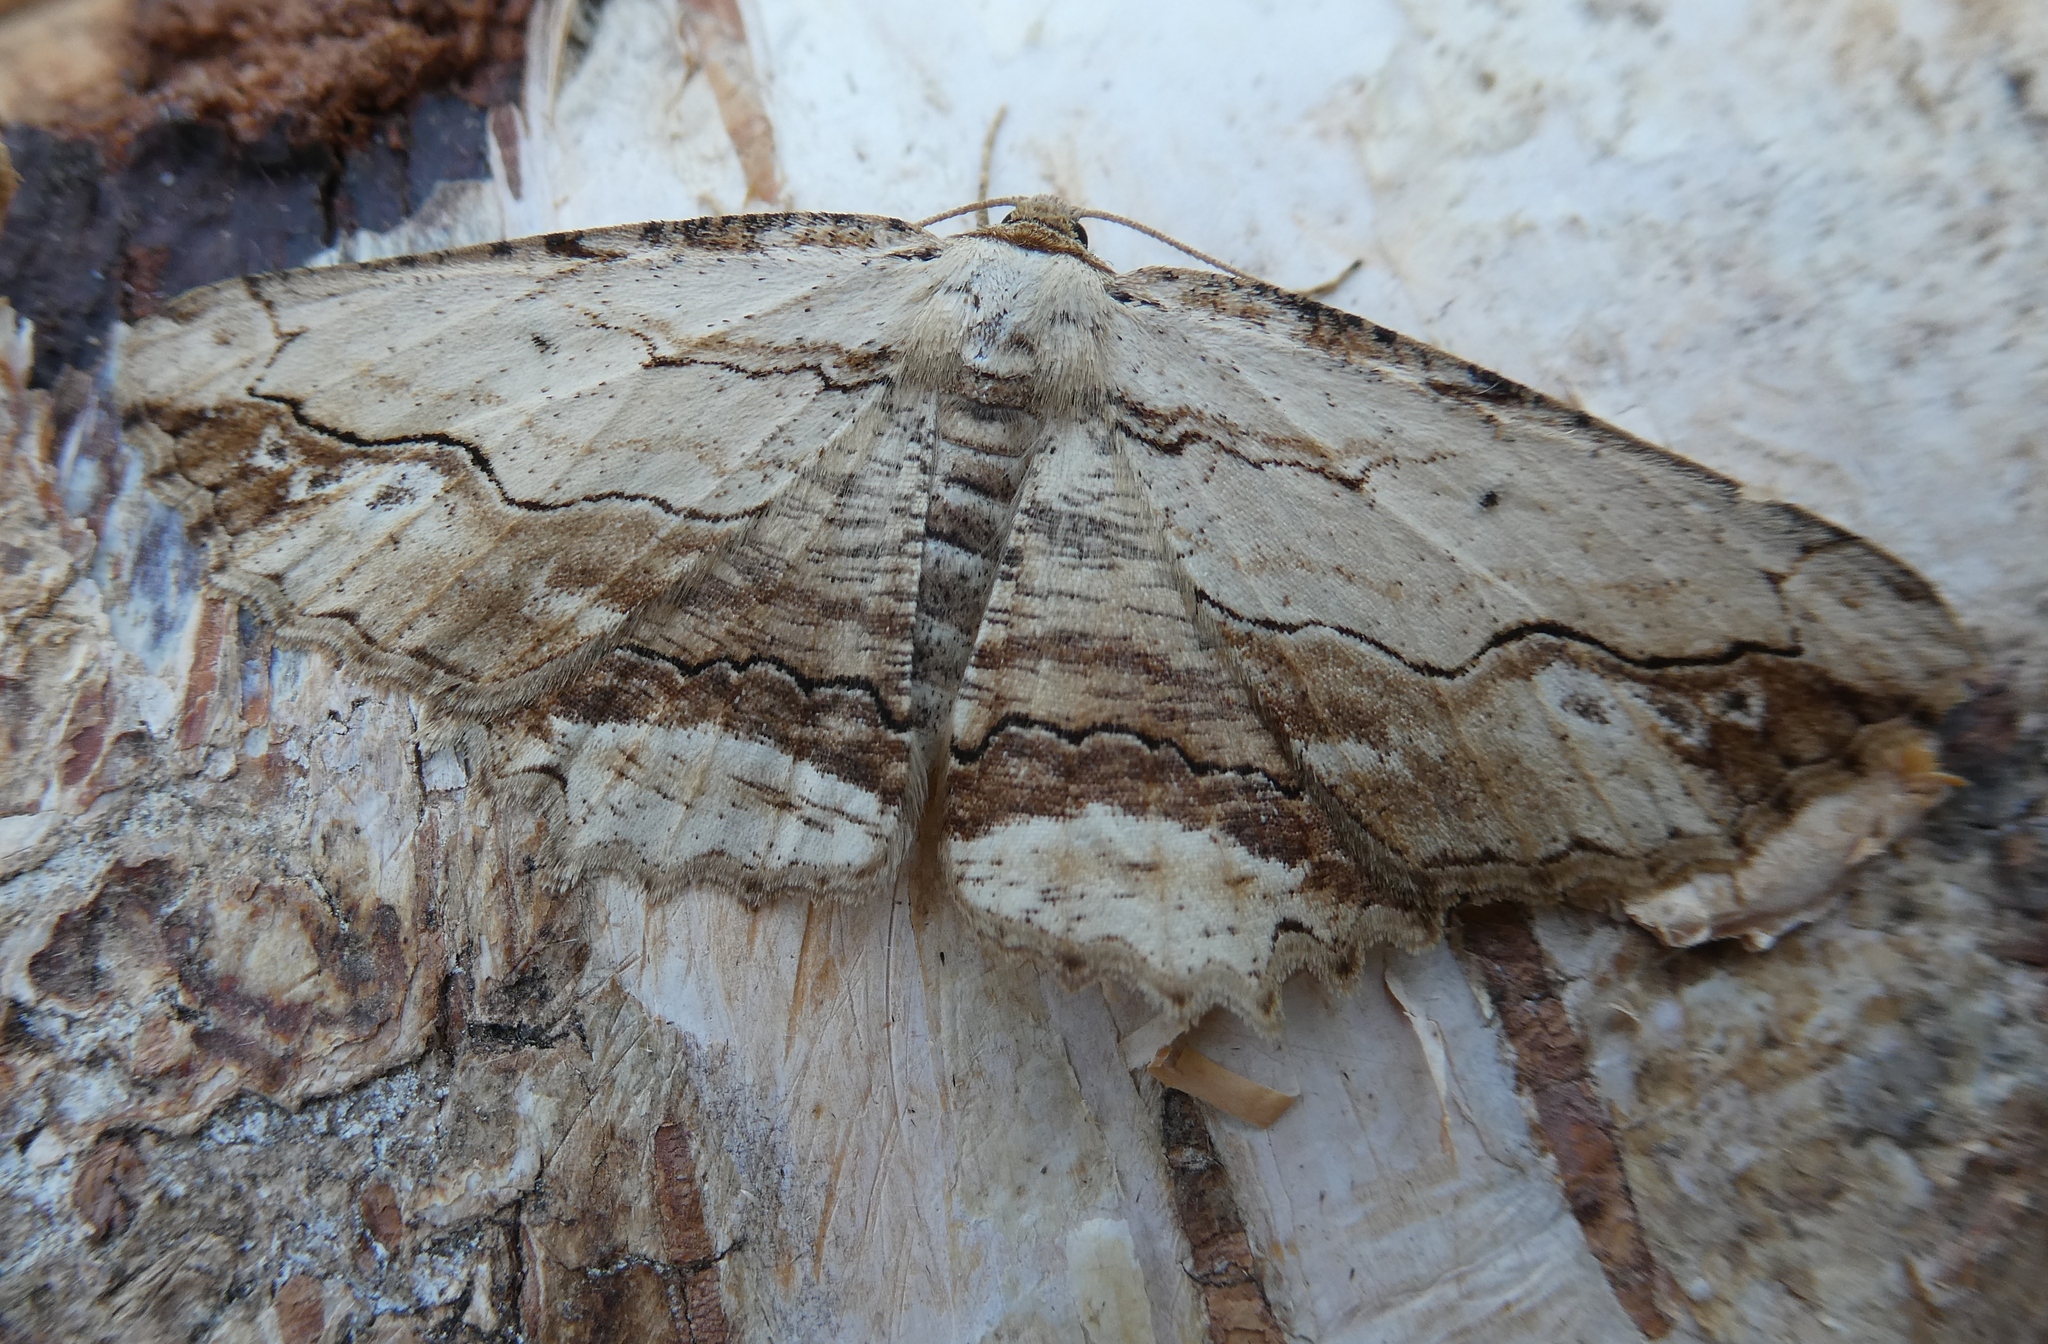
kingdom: Animalia
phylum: Arthropoda
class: Insecta
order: Lepidoptera
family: Geometridae
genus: Menophra
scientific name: Menophra abruptaria
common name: Waved umber
